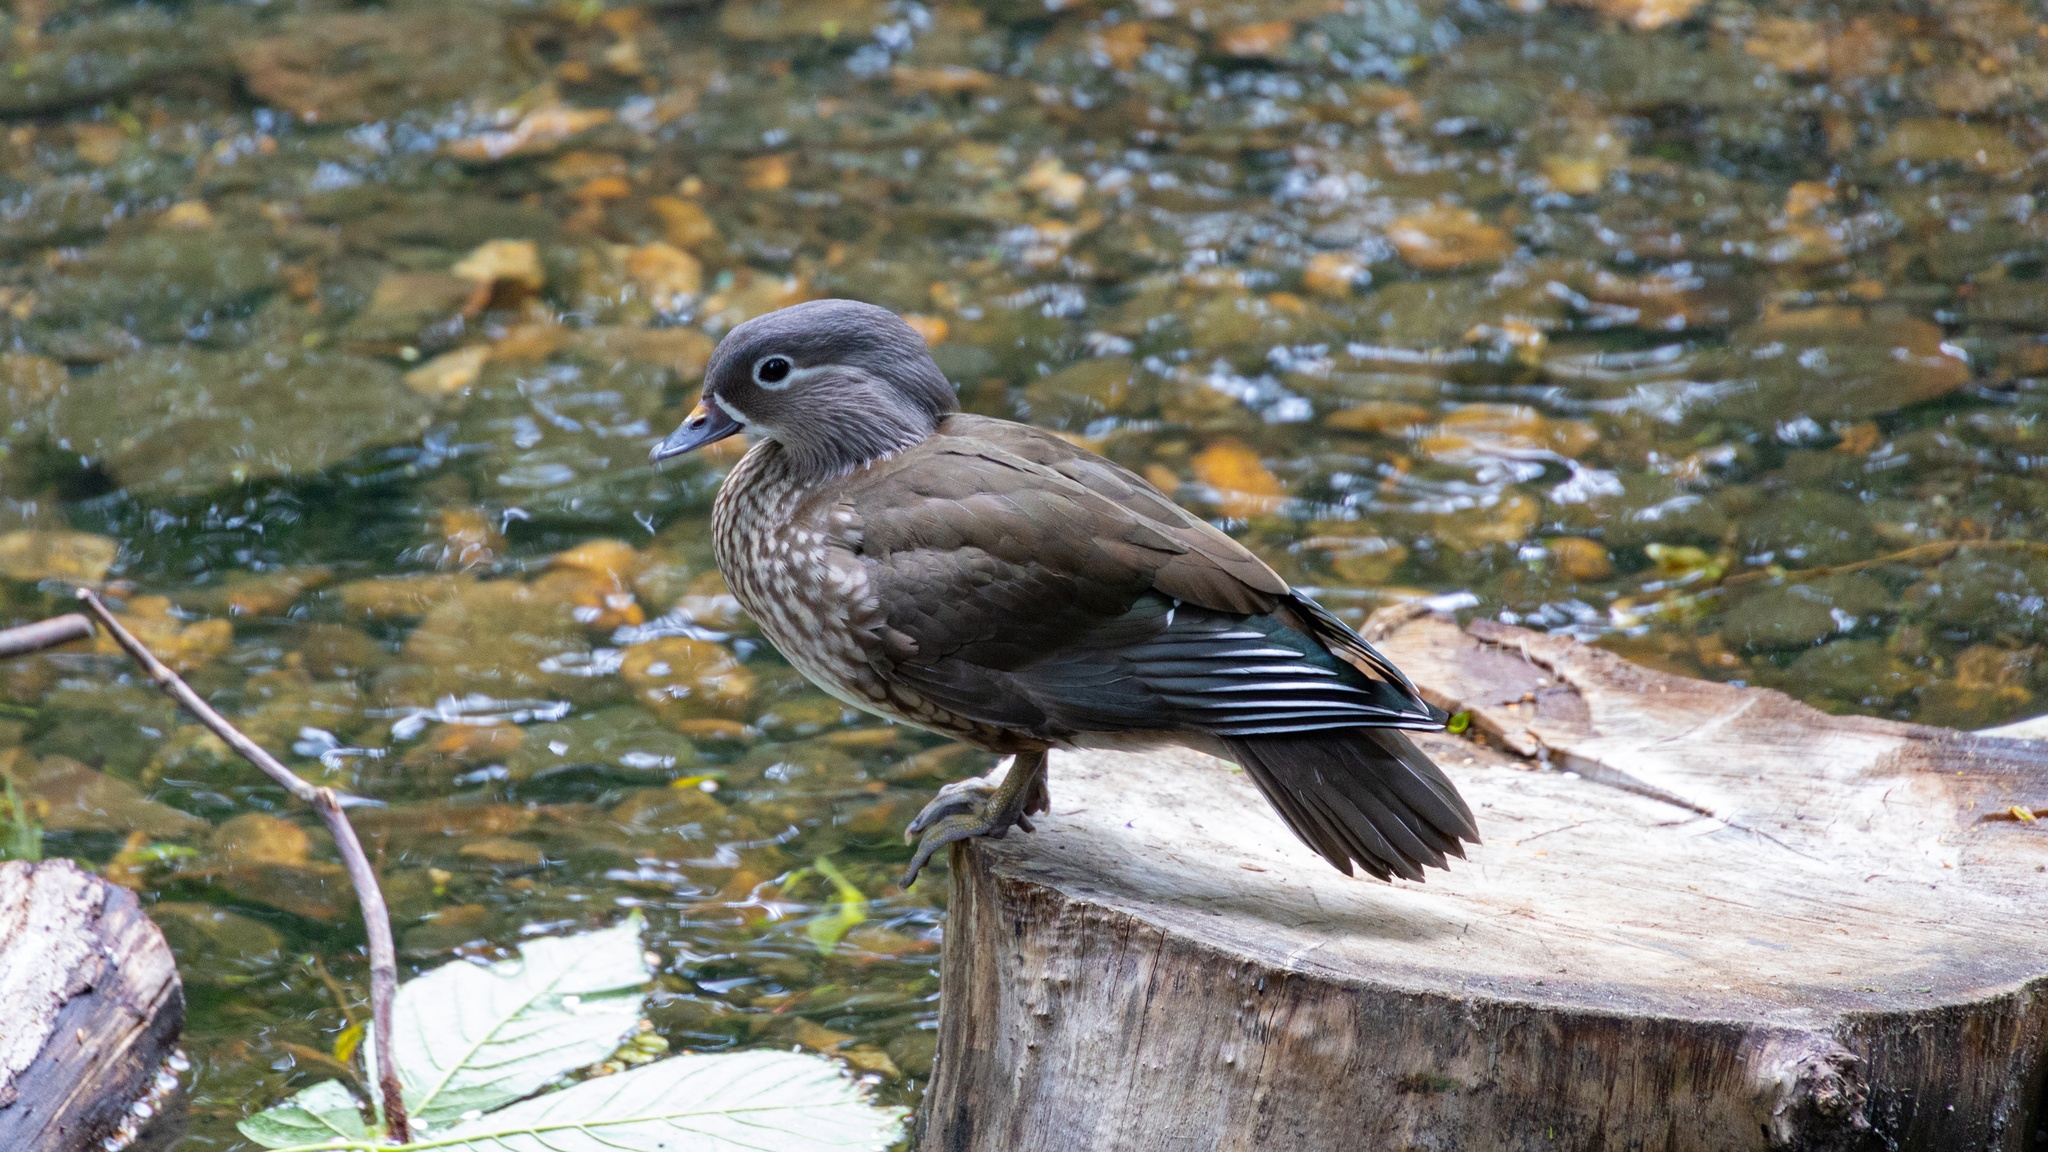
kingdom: Animalia
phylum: Chordata
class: Aves
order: Anseriformes
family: Anatidae
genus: Aix
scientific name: Aix galericulata
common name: Mandarin duck
